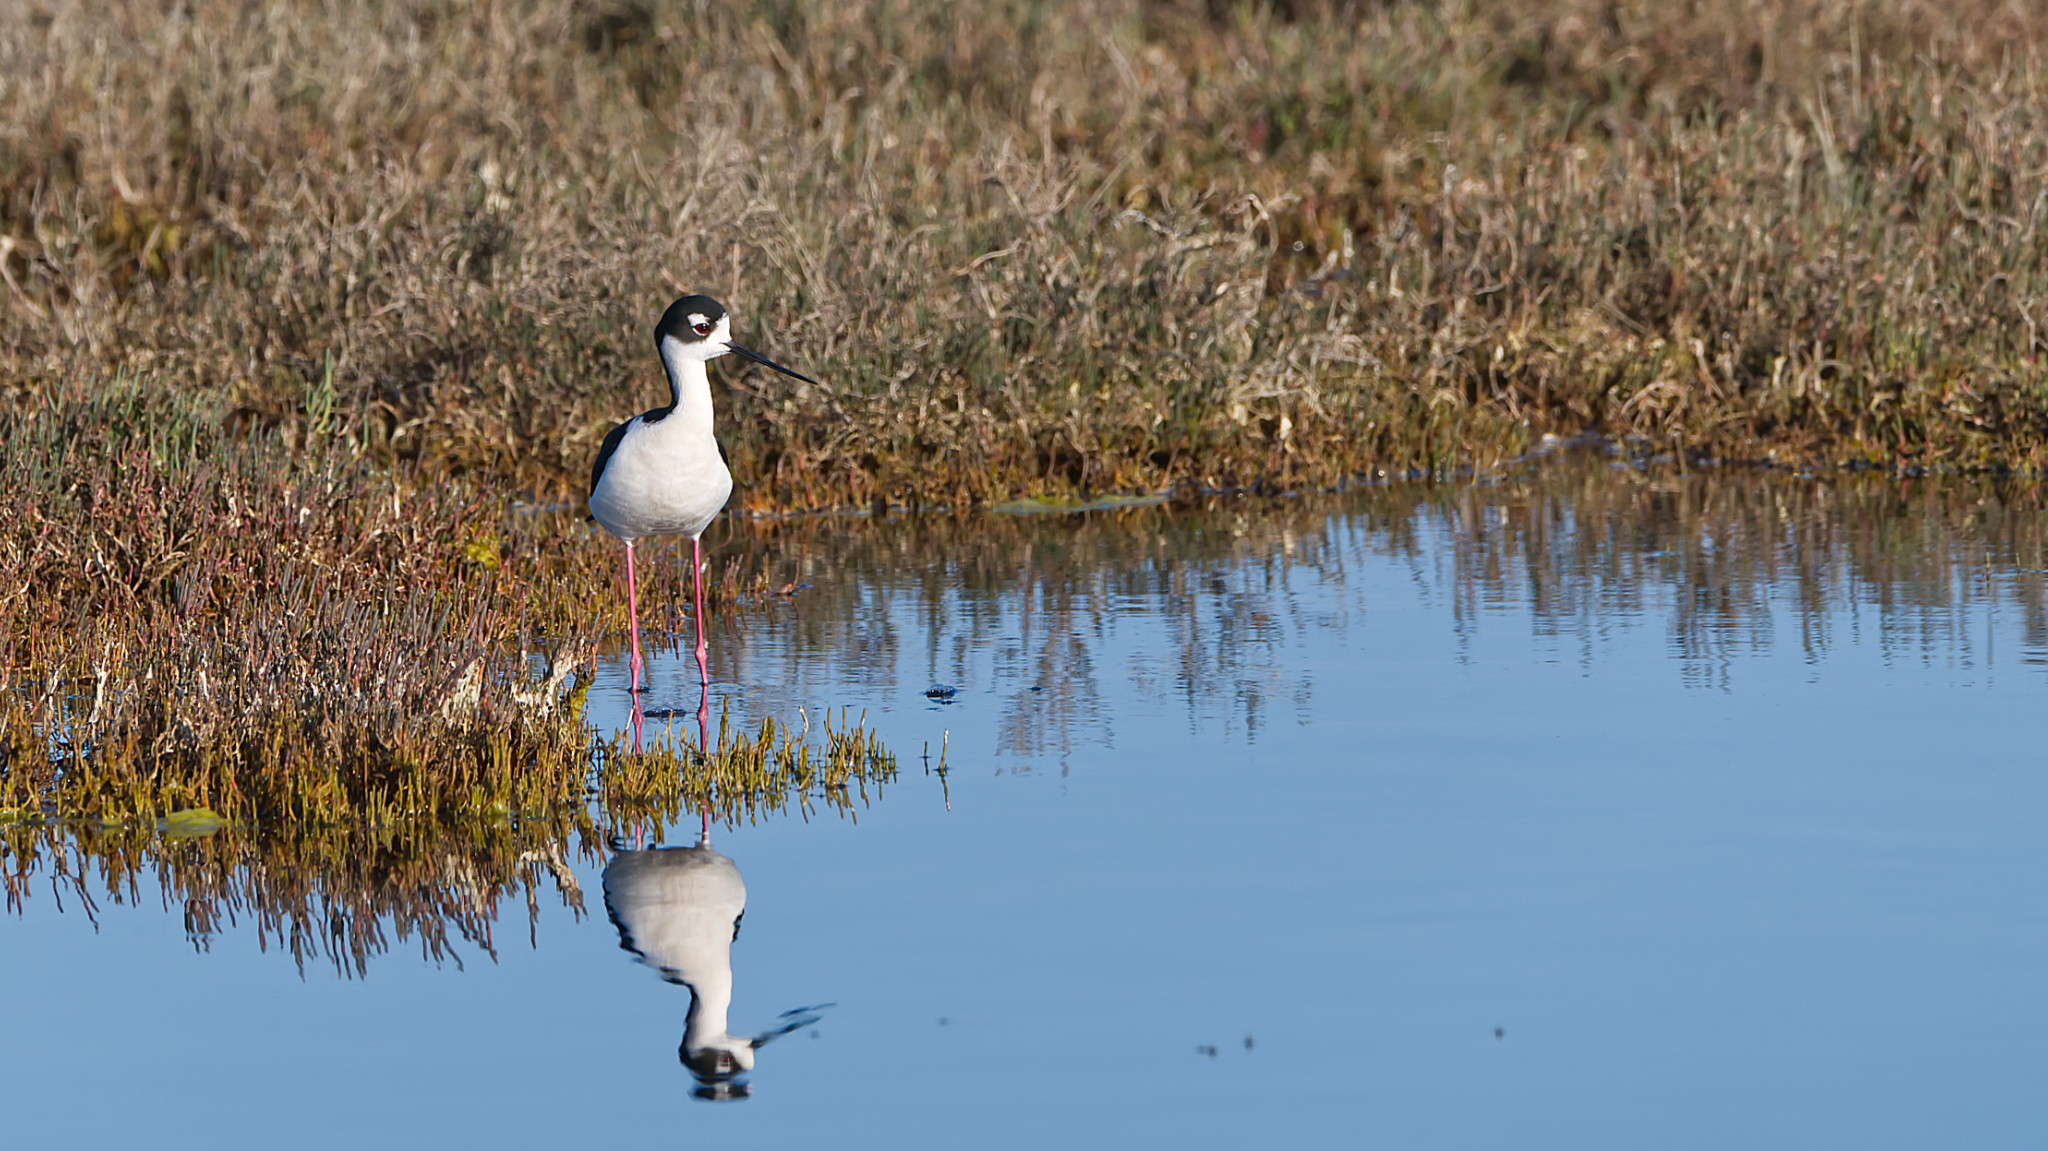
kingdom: Animalia
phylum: Chordata
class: Aves
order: Charadriiformes
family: Recurvirostridae
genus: Himantopus
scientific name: Himantopus mexicanus
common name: Black-necked stilt
